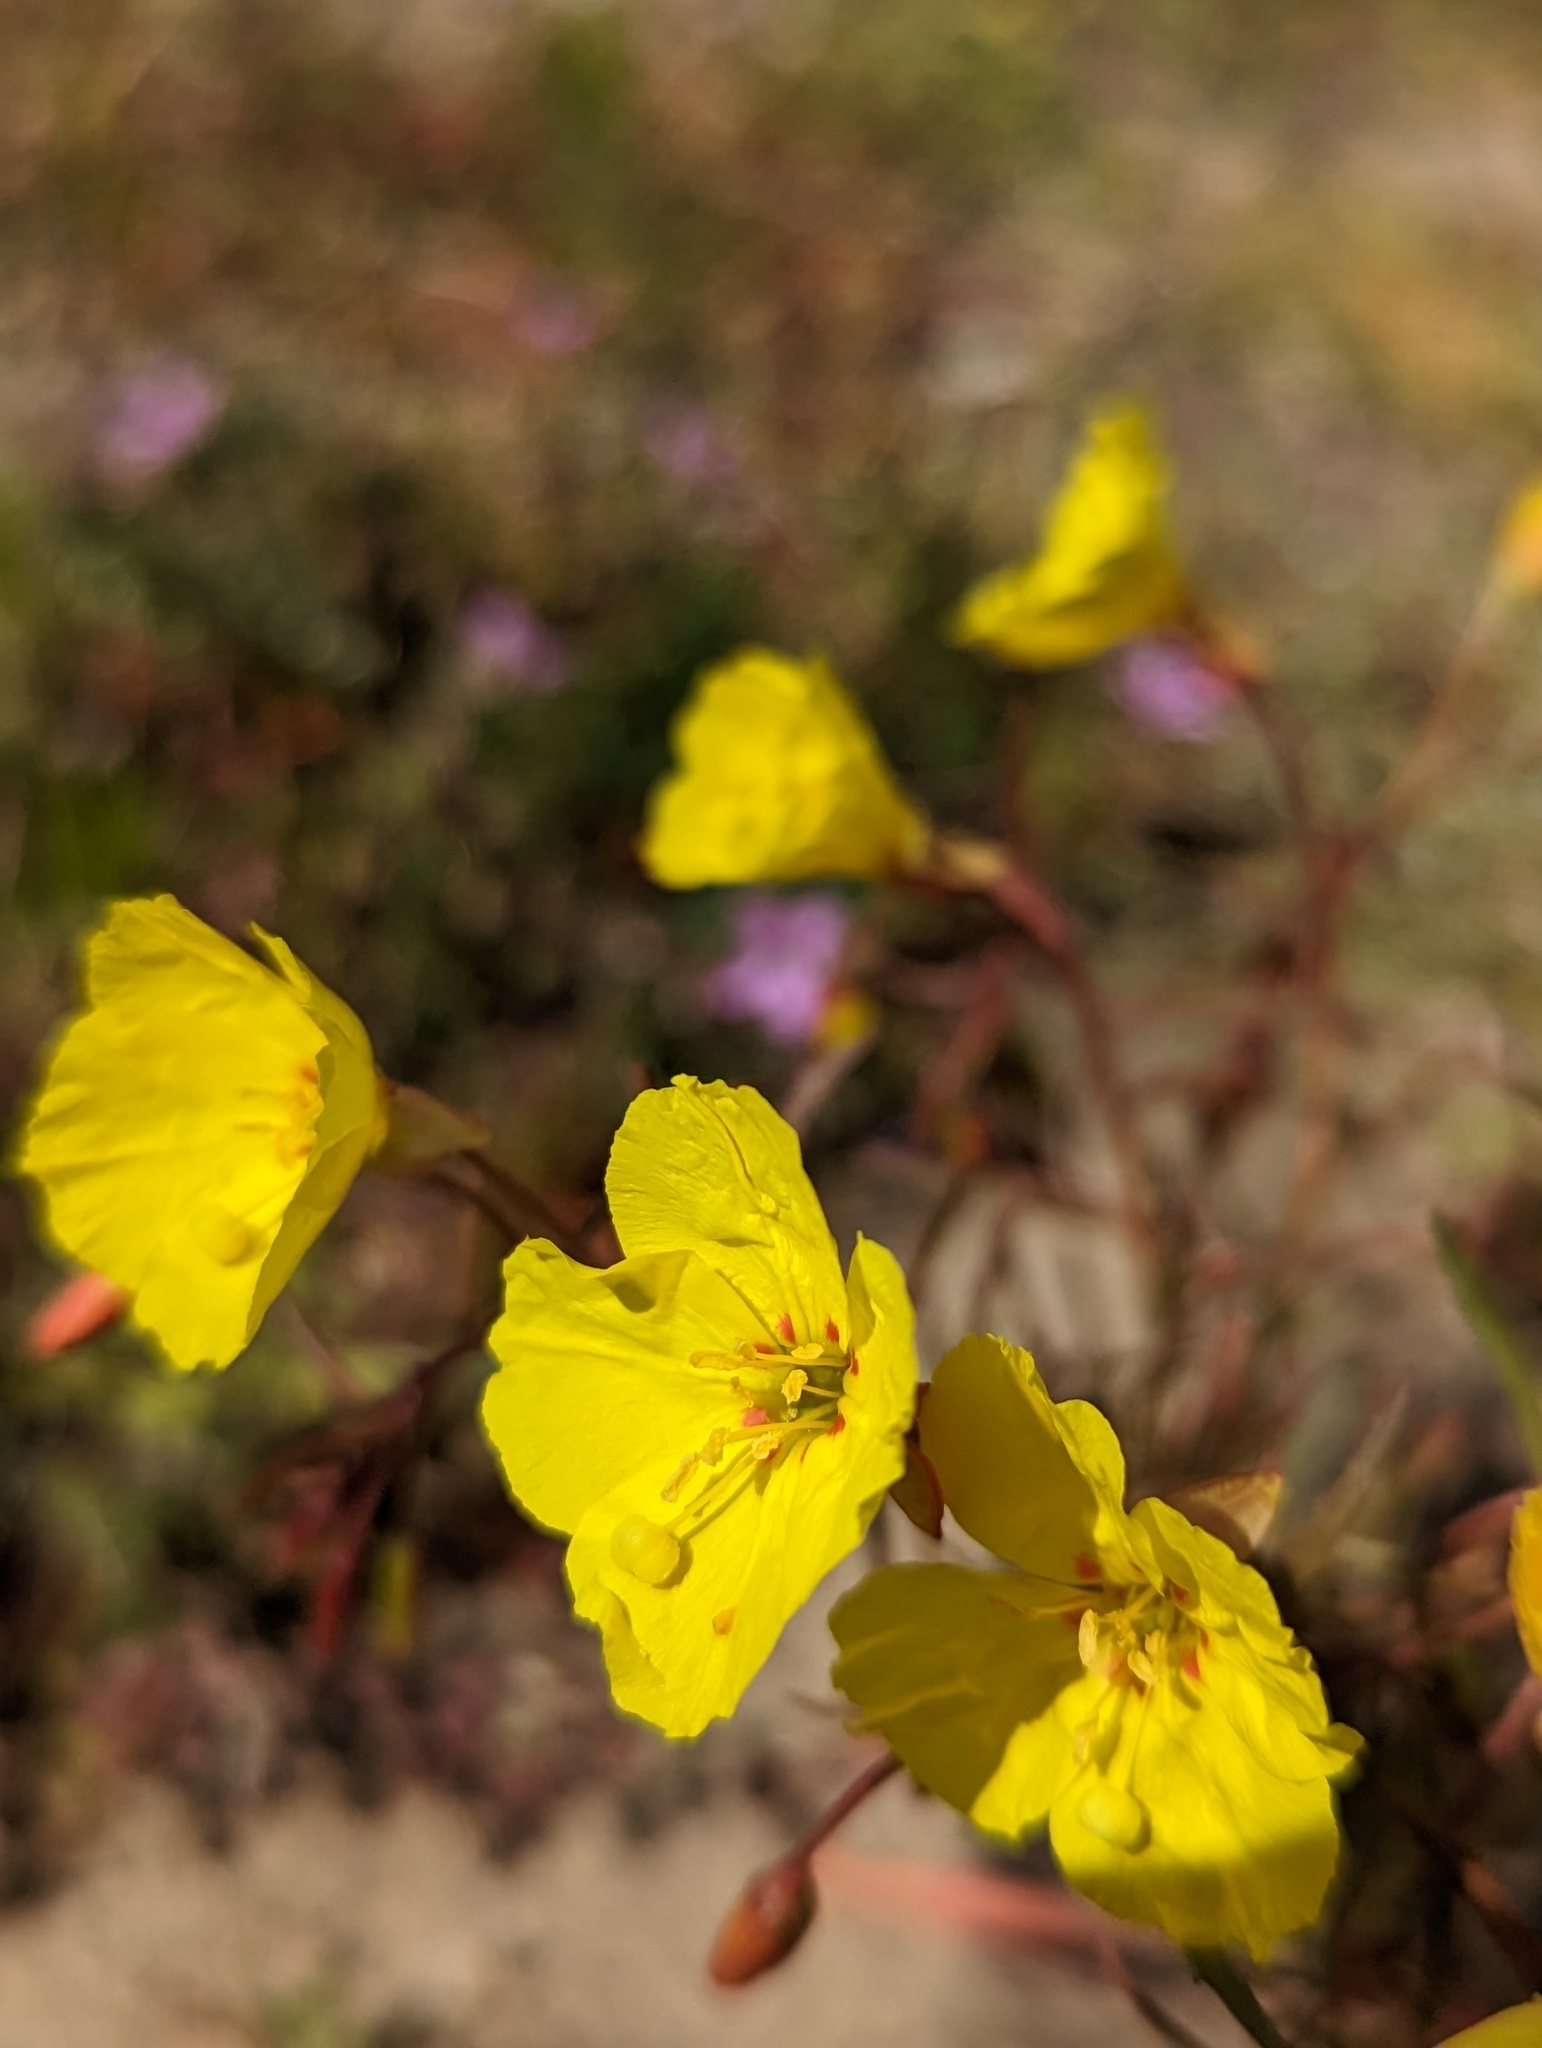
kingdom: Plantae
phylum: Tracheophyta
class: Magnoliopsida
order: Myrtales
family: Onagraceae
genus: Camissonia
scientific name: Camissonia campestris
